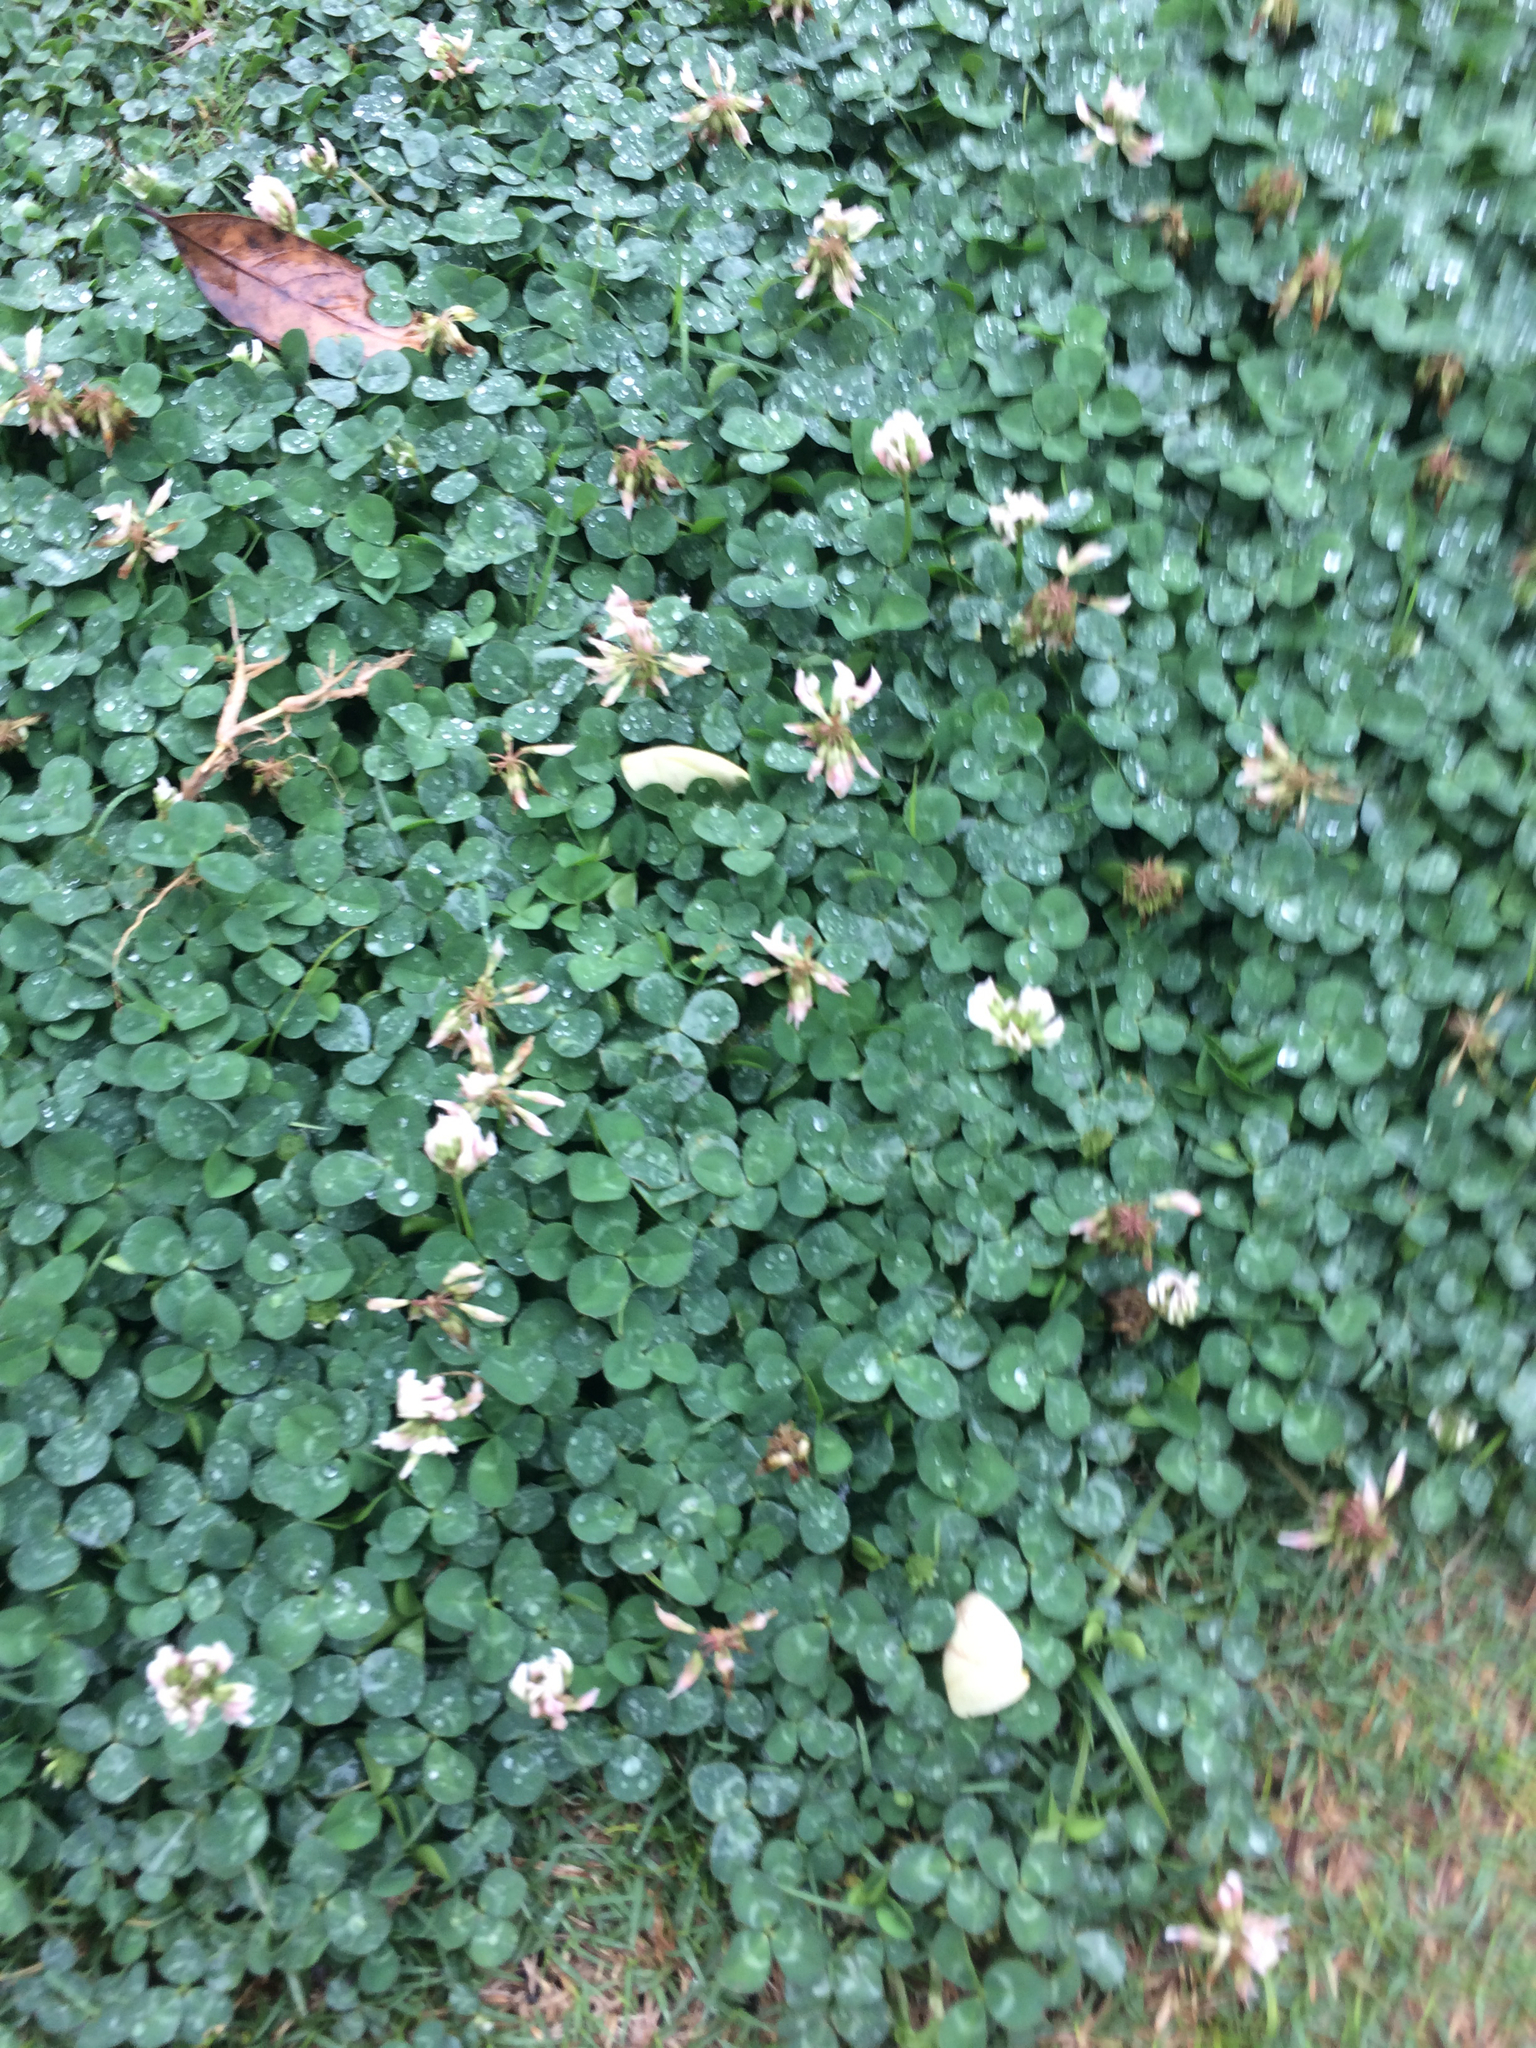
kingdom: Plantae
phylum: Tracheophyta
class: Magnoliopsida
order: Fabales
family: Fabaceae
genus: Trifolium
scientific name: Trifolium repens
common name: White clover
